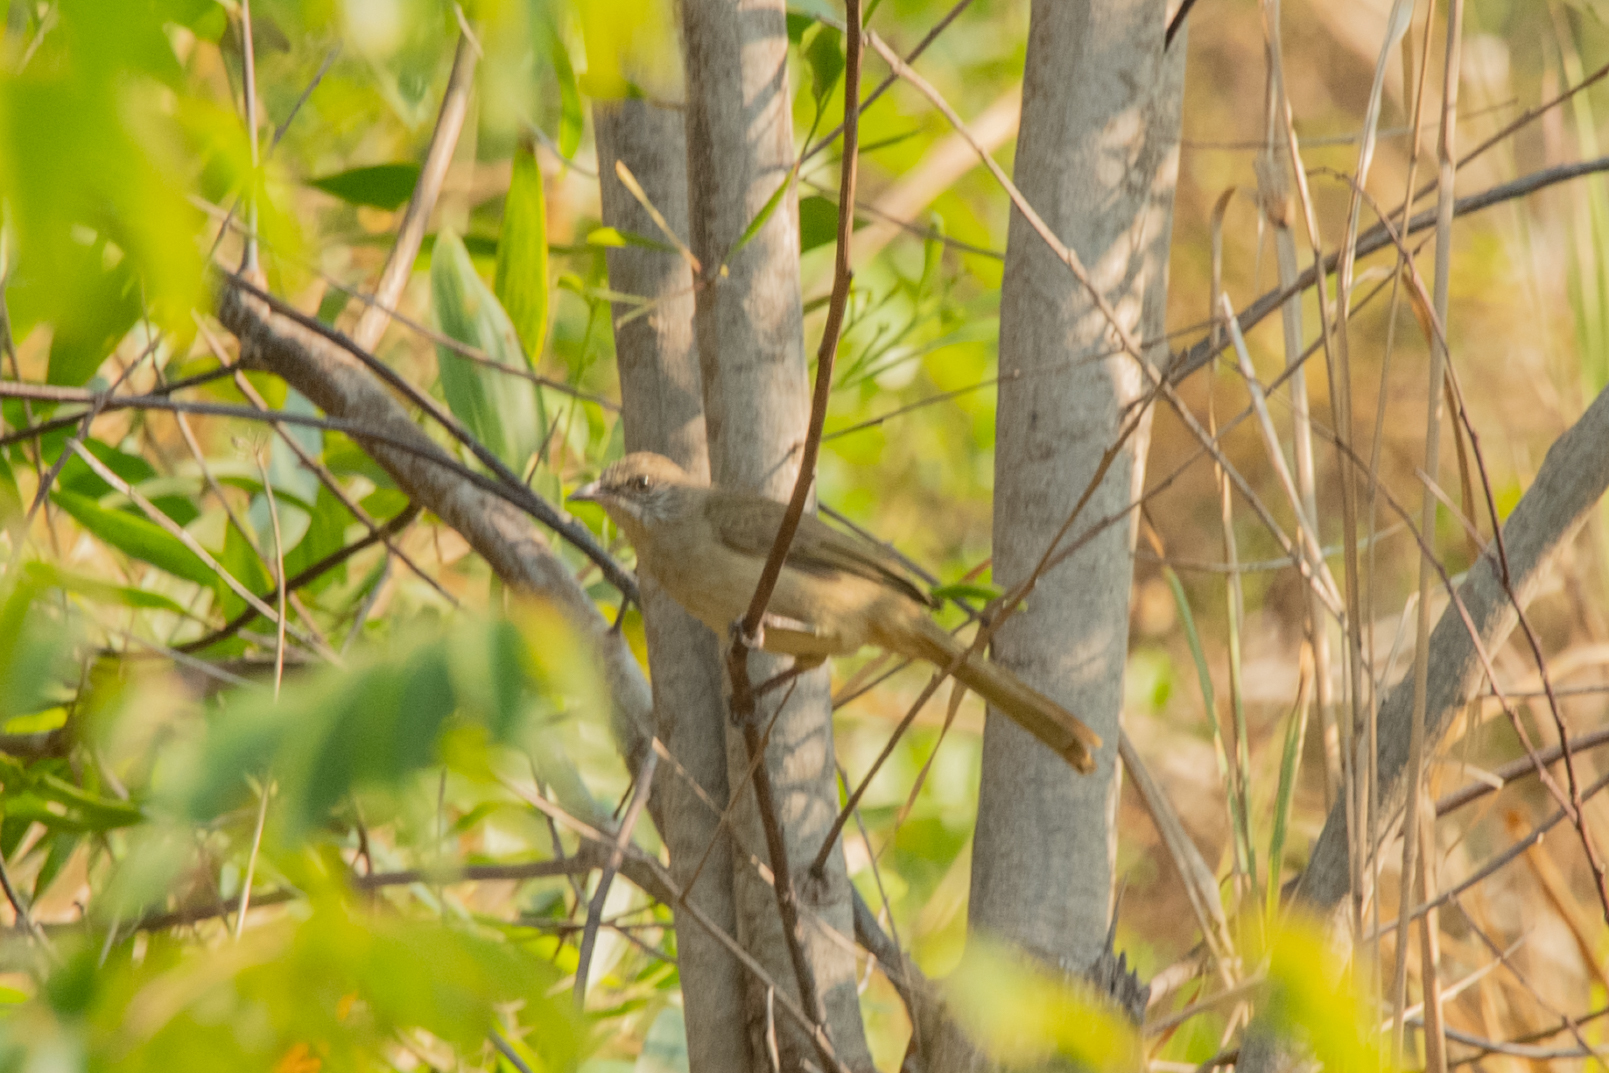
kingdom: Animalia
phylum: Chordata
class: Aves
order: Passeriformes
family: Pycnonotidae
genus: Pycnonotus
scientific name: Pycnonotus blanfordi
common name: Streak-eared bulbul
